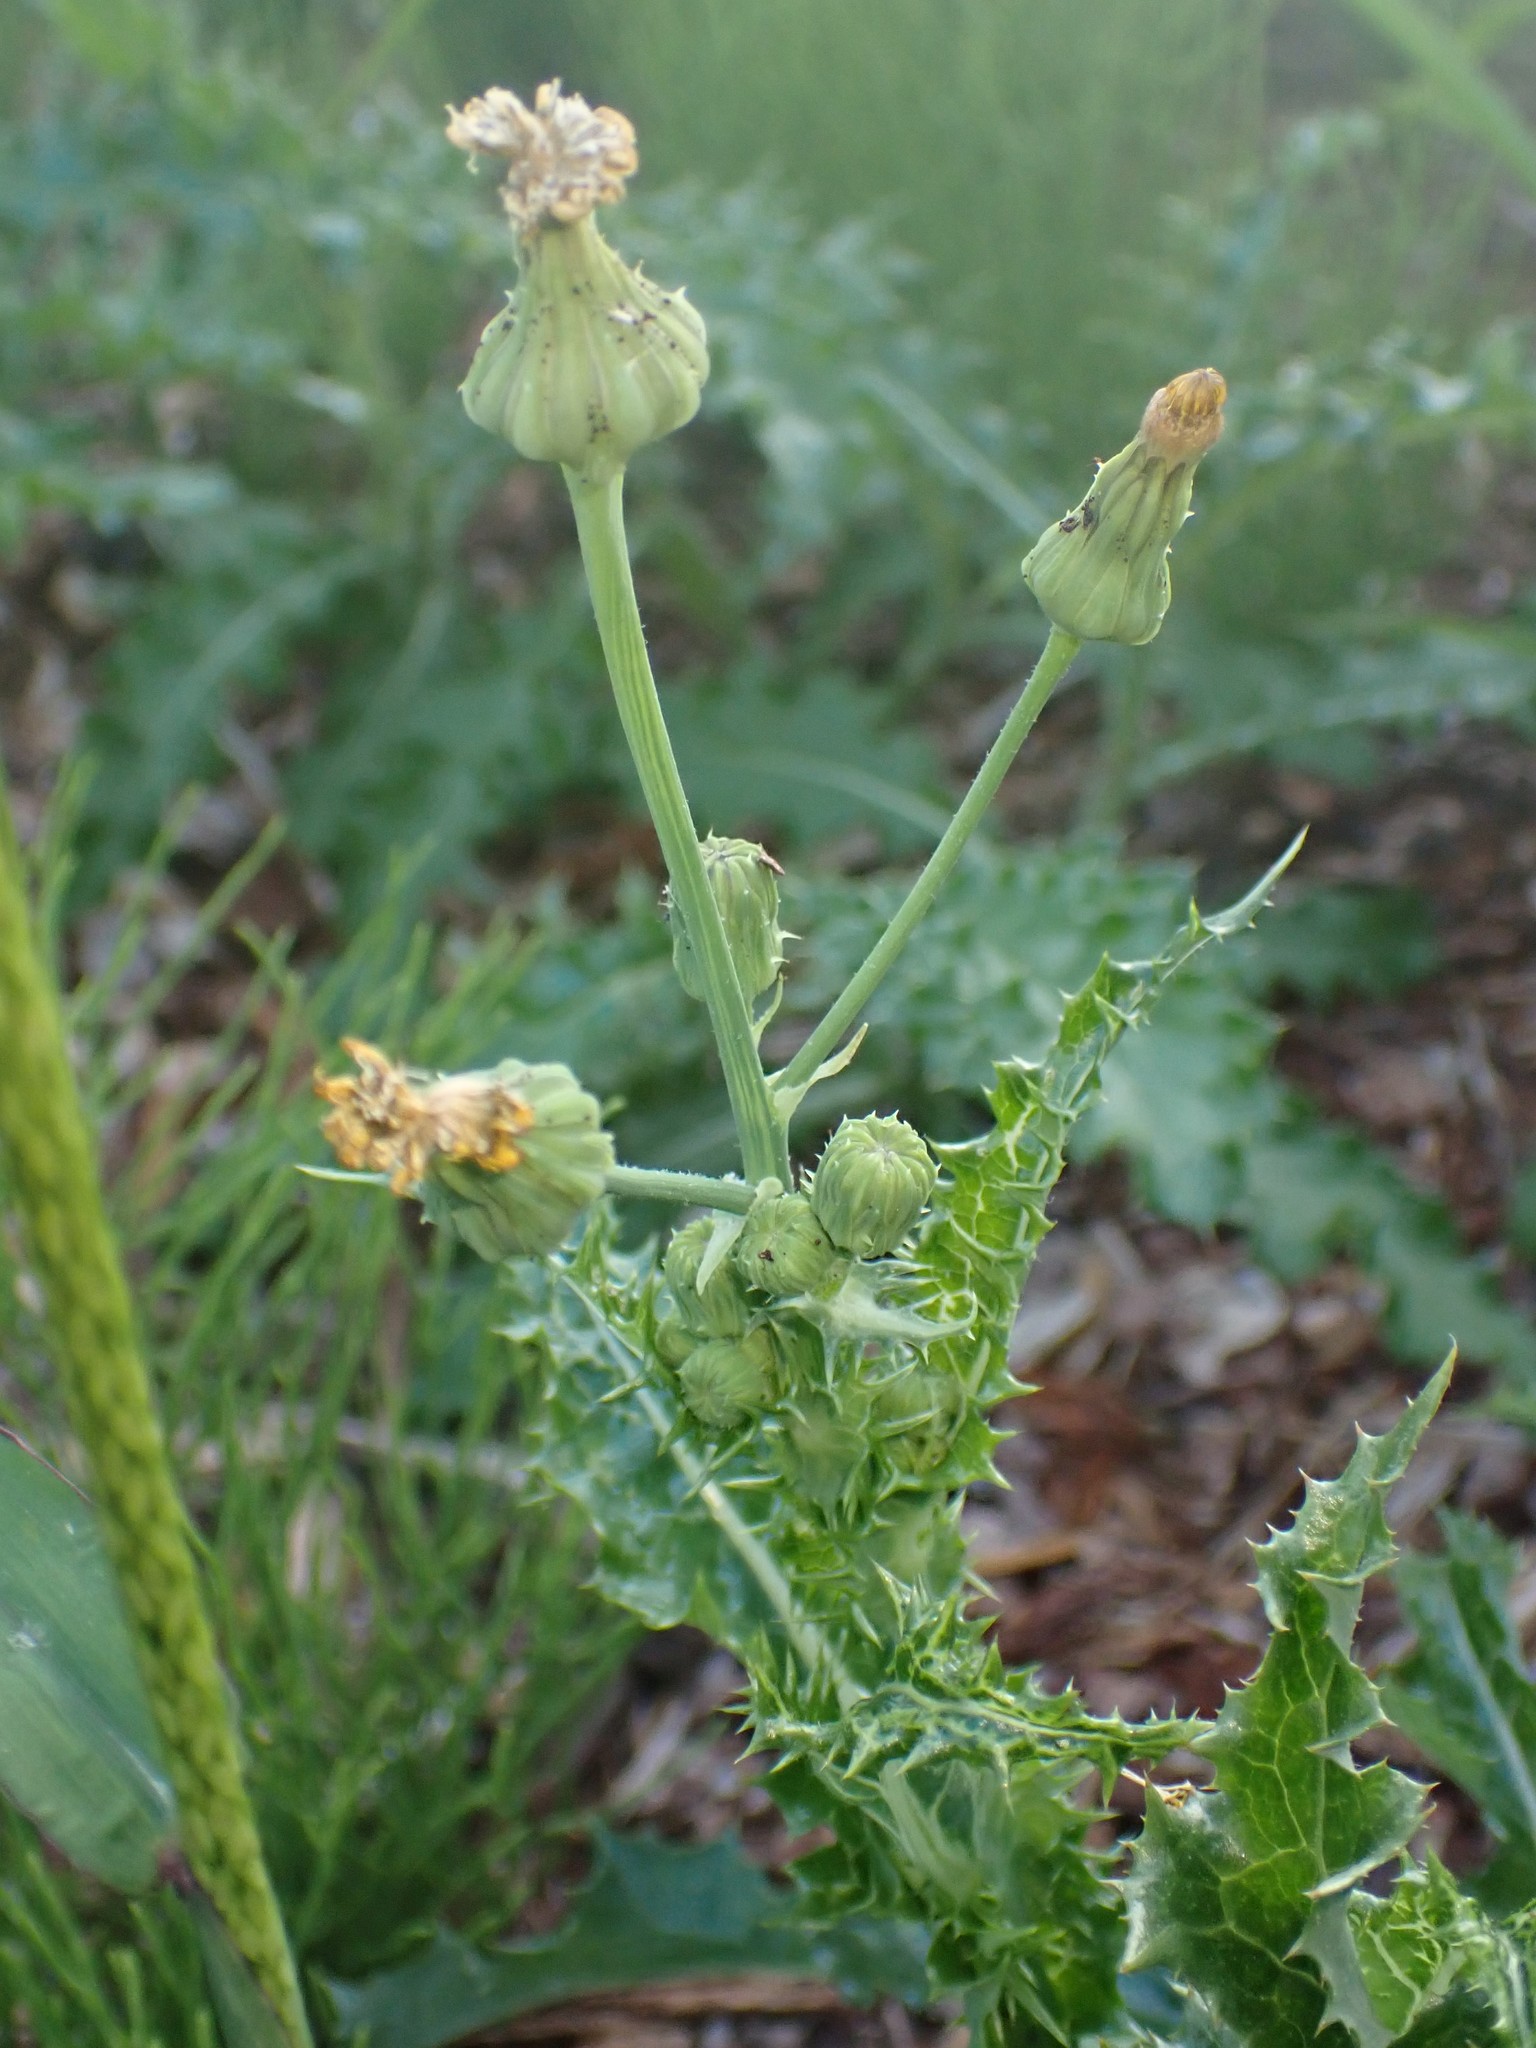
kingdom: Plantae
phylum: Tracheophyta
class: Magnoliopsida
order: Asterales
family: Asteraceae
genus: Sonchus
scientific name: Sonchus asper
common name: Prickly sow-thistle
